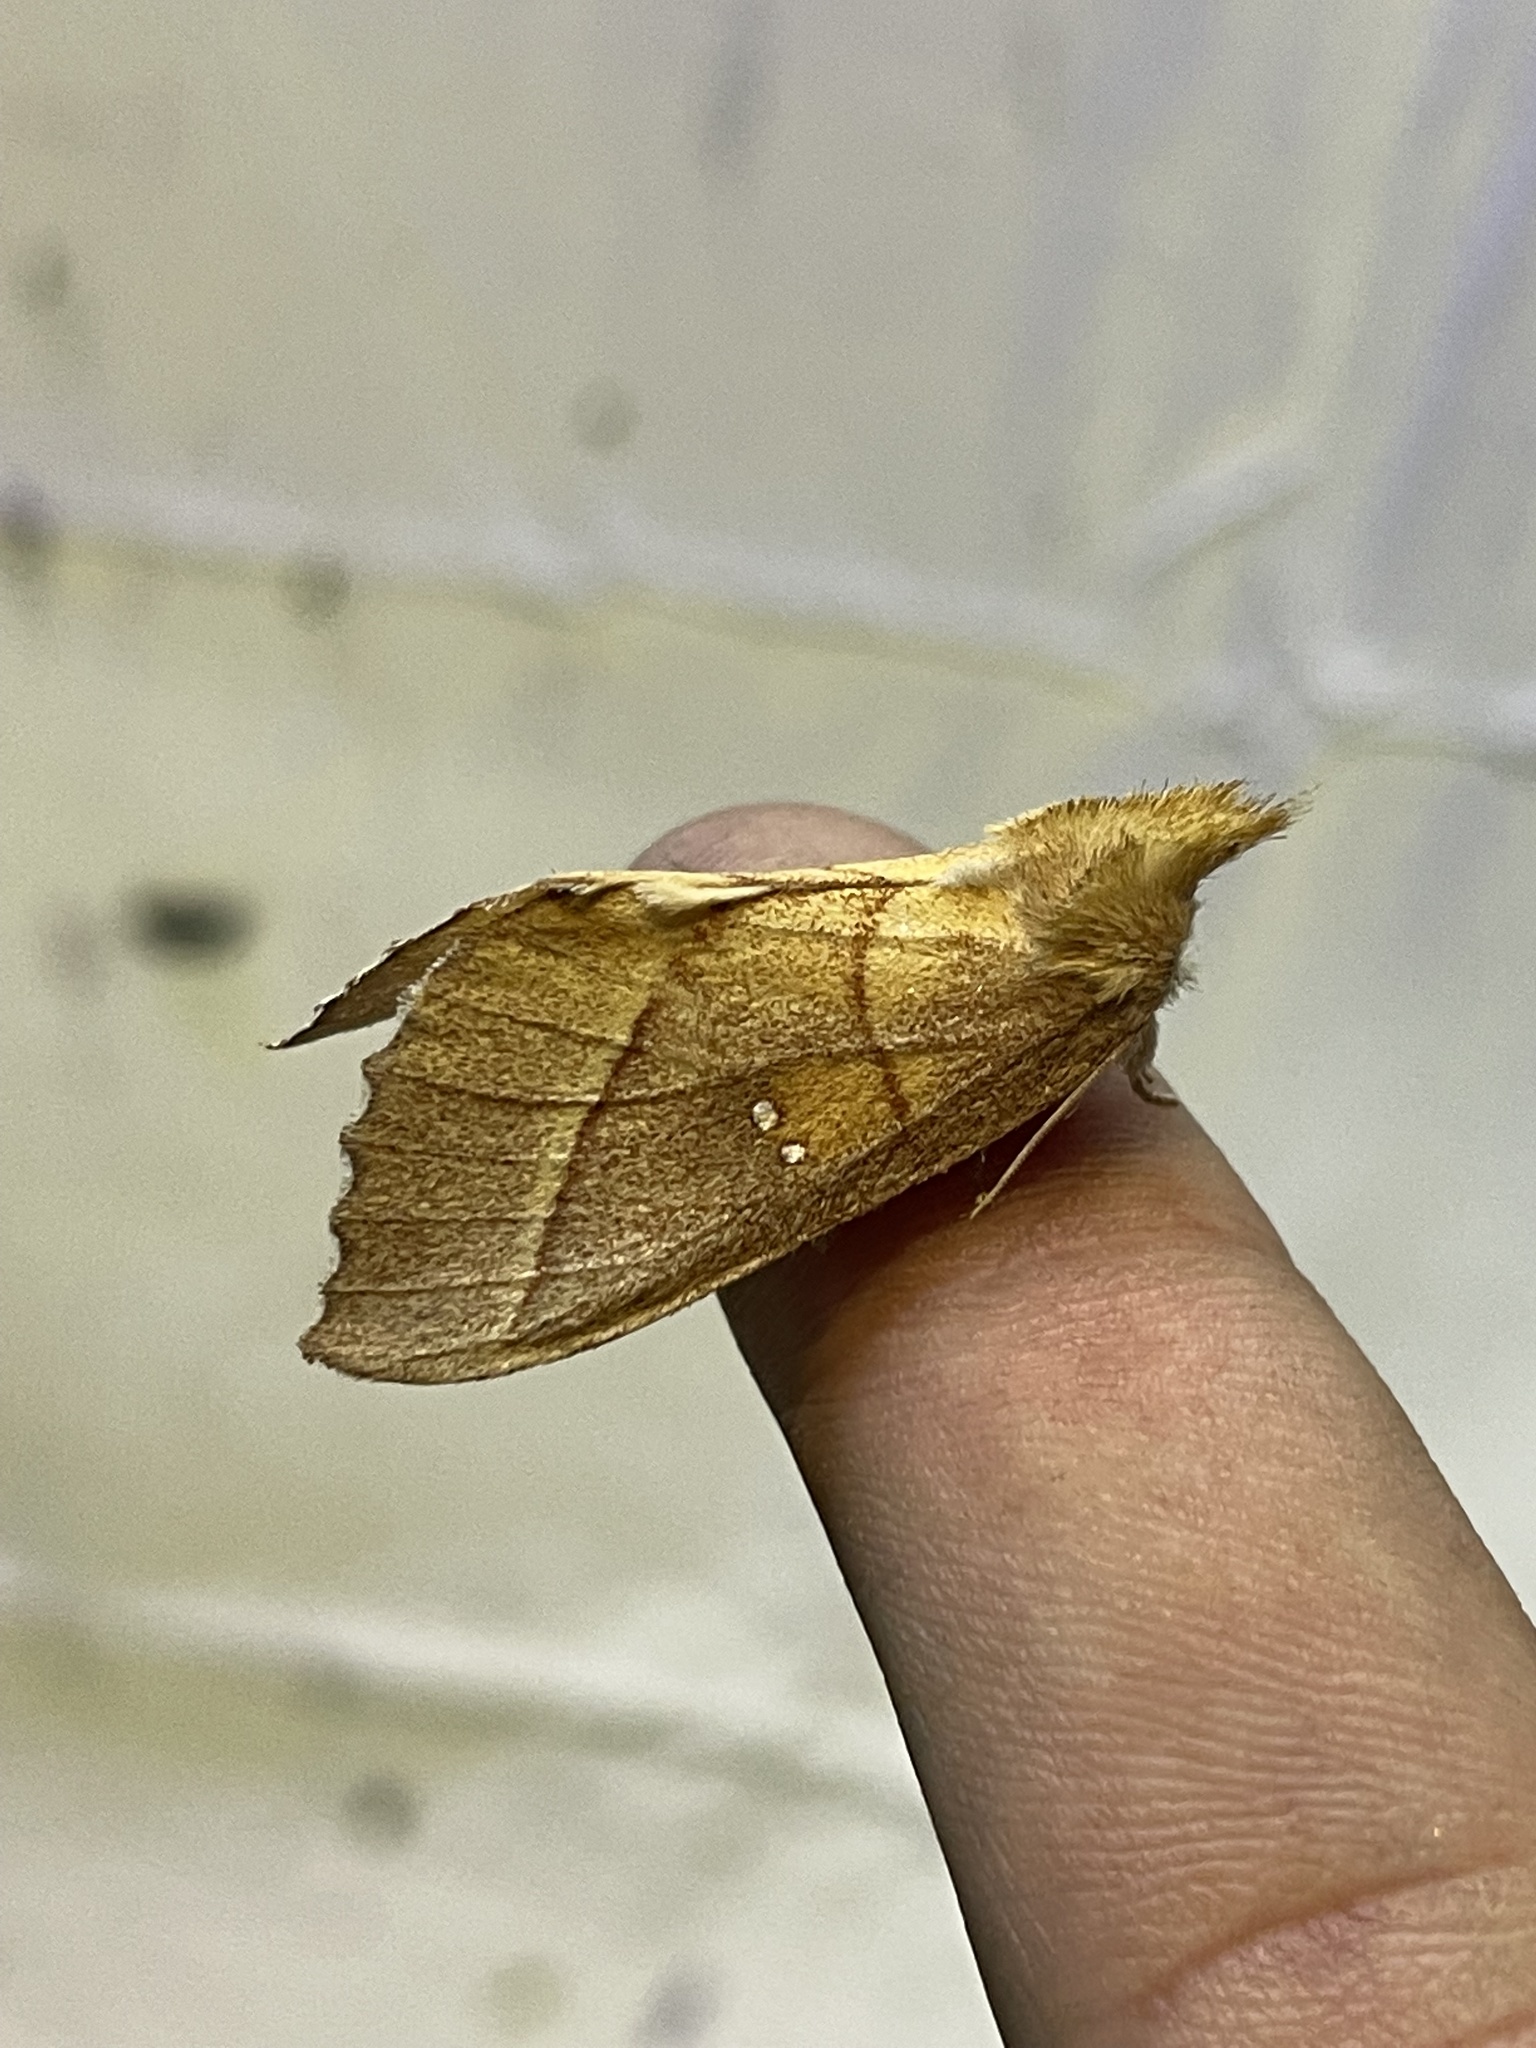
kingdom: Animalia
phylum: Arthropoda
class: Insecta
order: Lepidoptera
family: Notodontidae
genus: Nadata
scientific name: Nadata gibbosa
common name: White-dotted prominent
